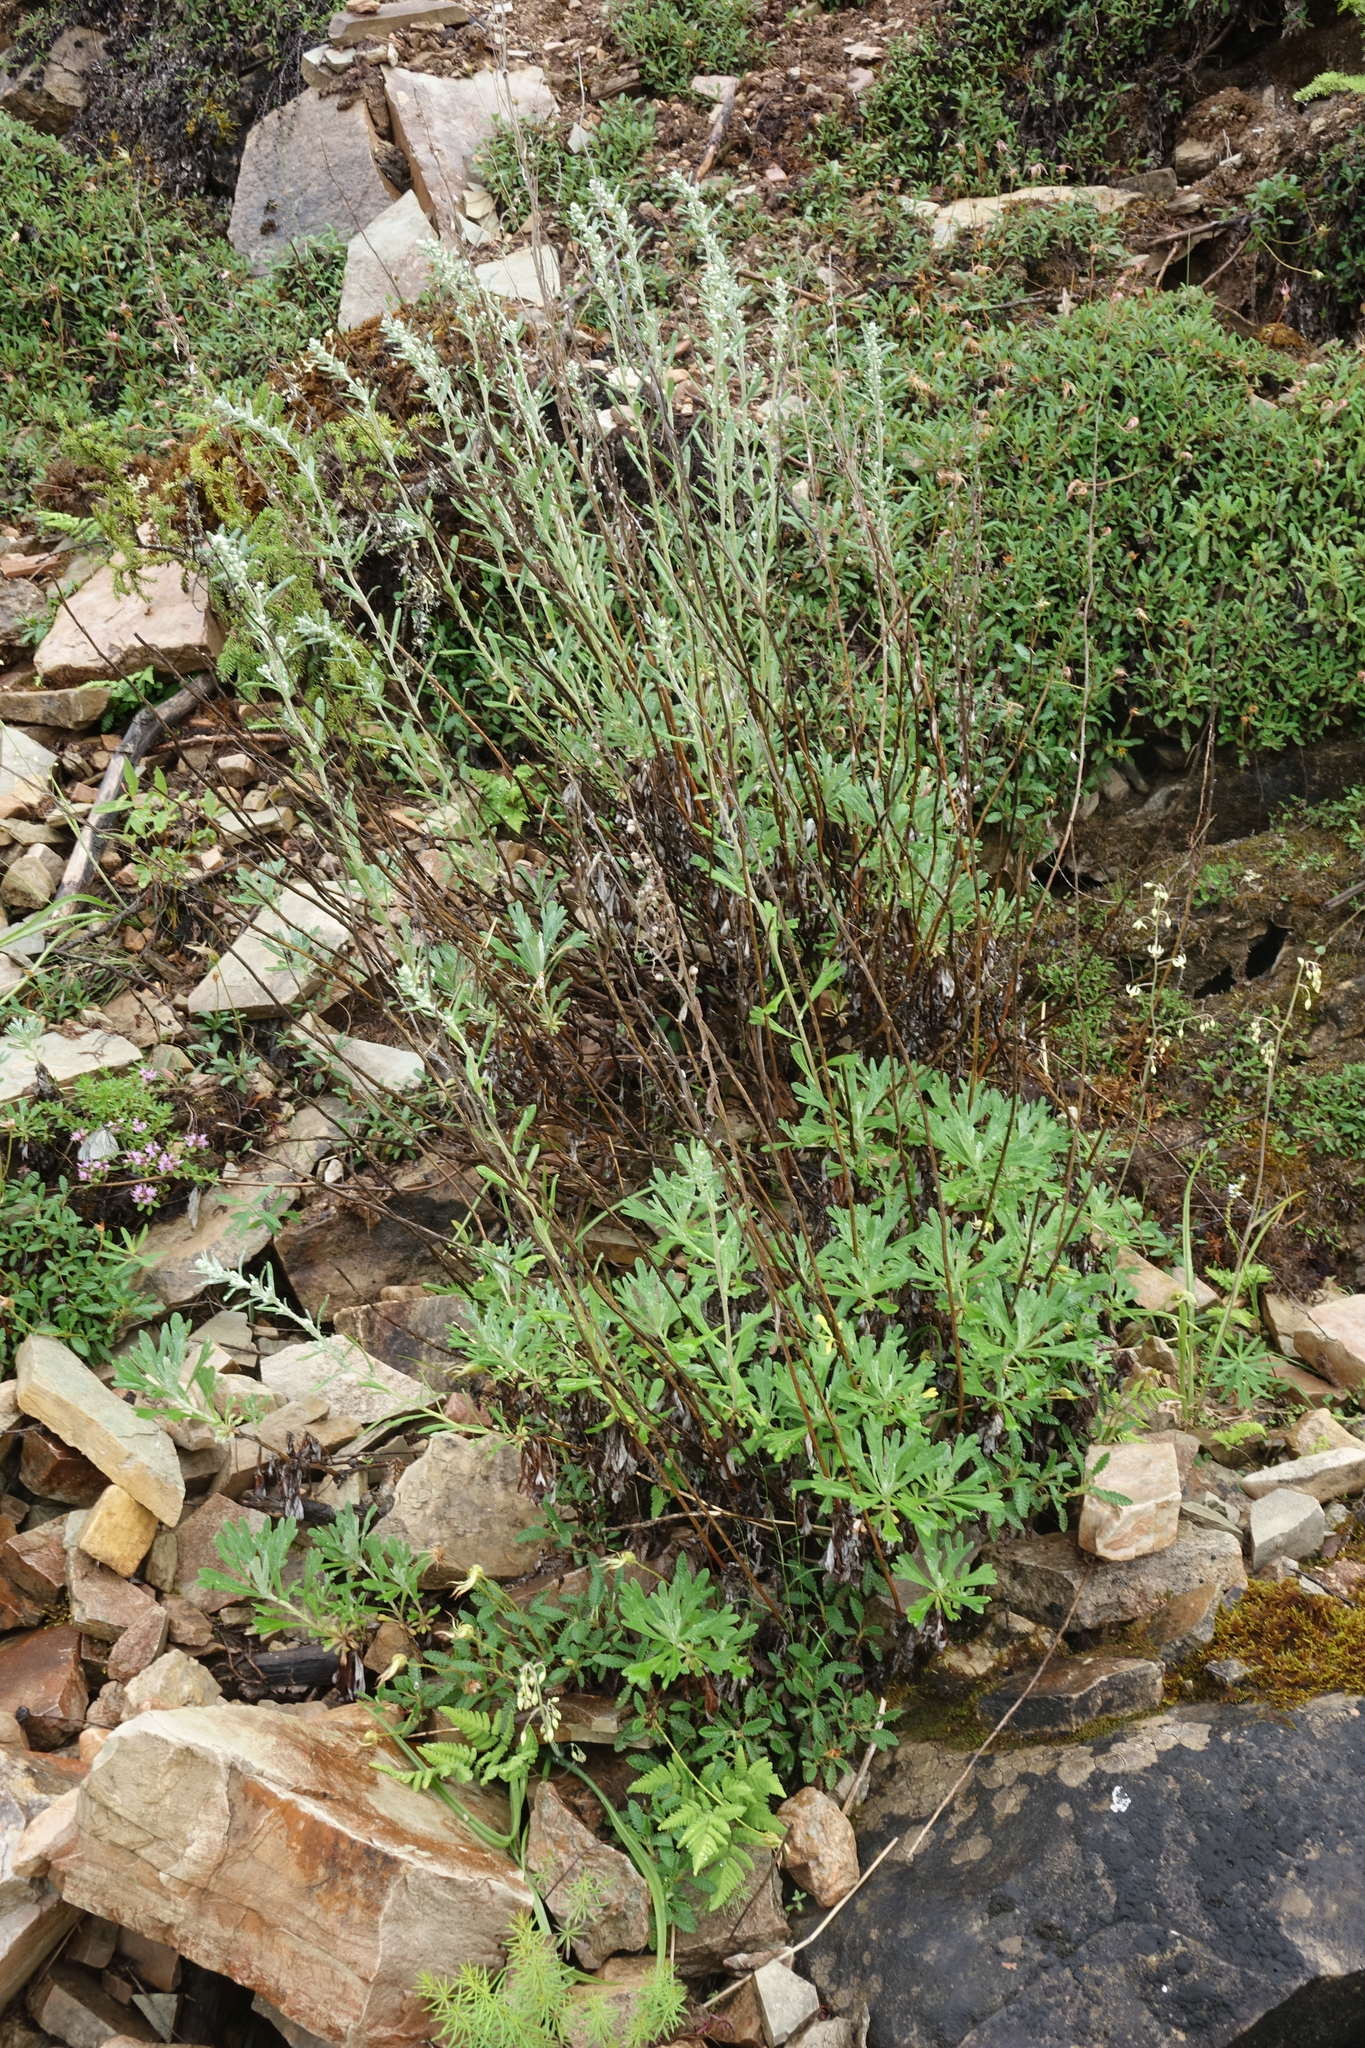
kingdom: Plantae
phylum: Tracheophyta
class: Magnoliopsida
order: Asterales
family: Asteraceae
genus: Artemisia
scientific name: Artemisia lagocephala
